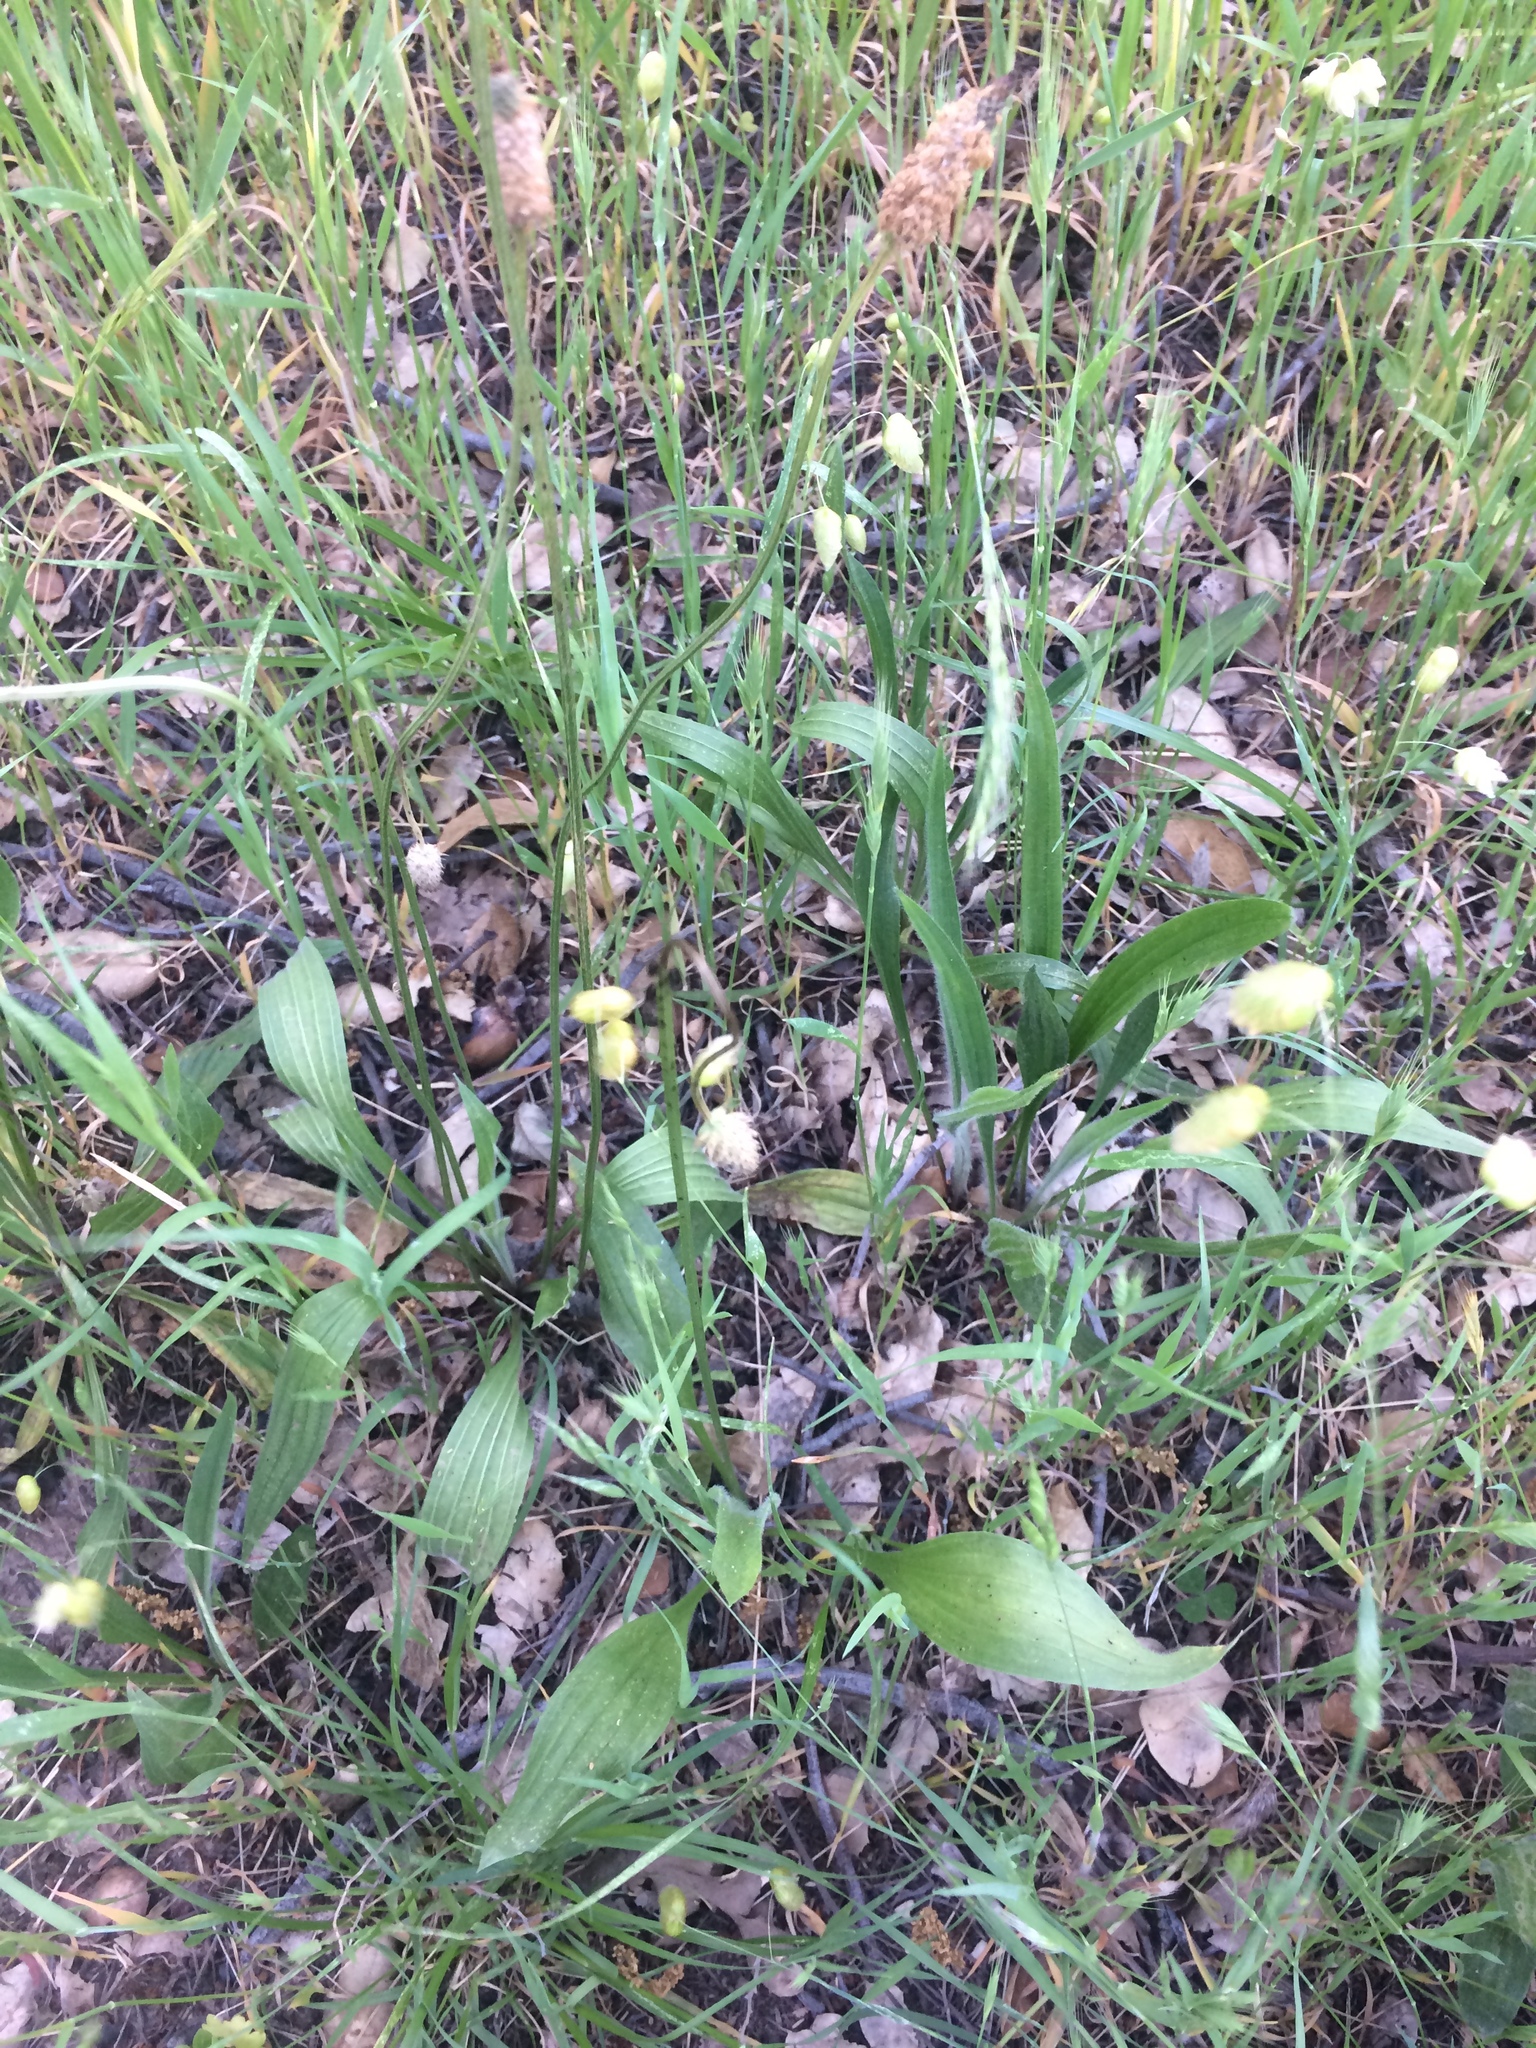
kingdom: Plantae
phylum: Tracheophyta
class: Magnoliopsida
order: Lamiales
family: Plantaginaceae
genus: Plantago
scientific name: Plantago lanceolata
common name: Ribwort plantain
